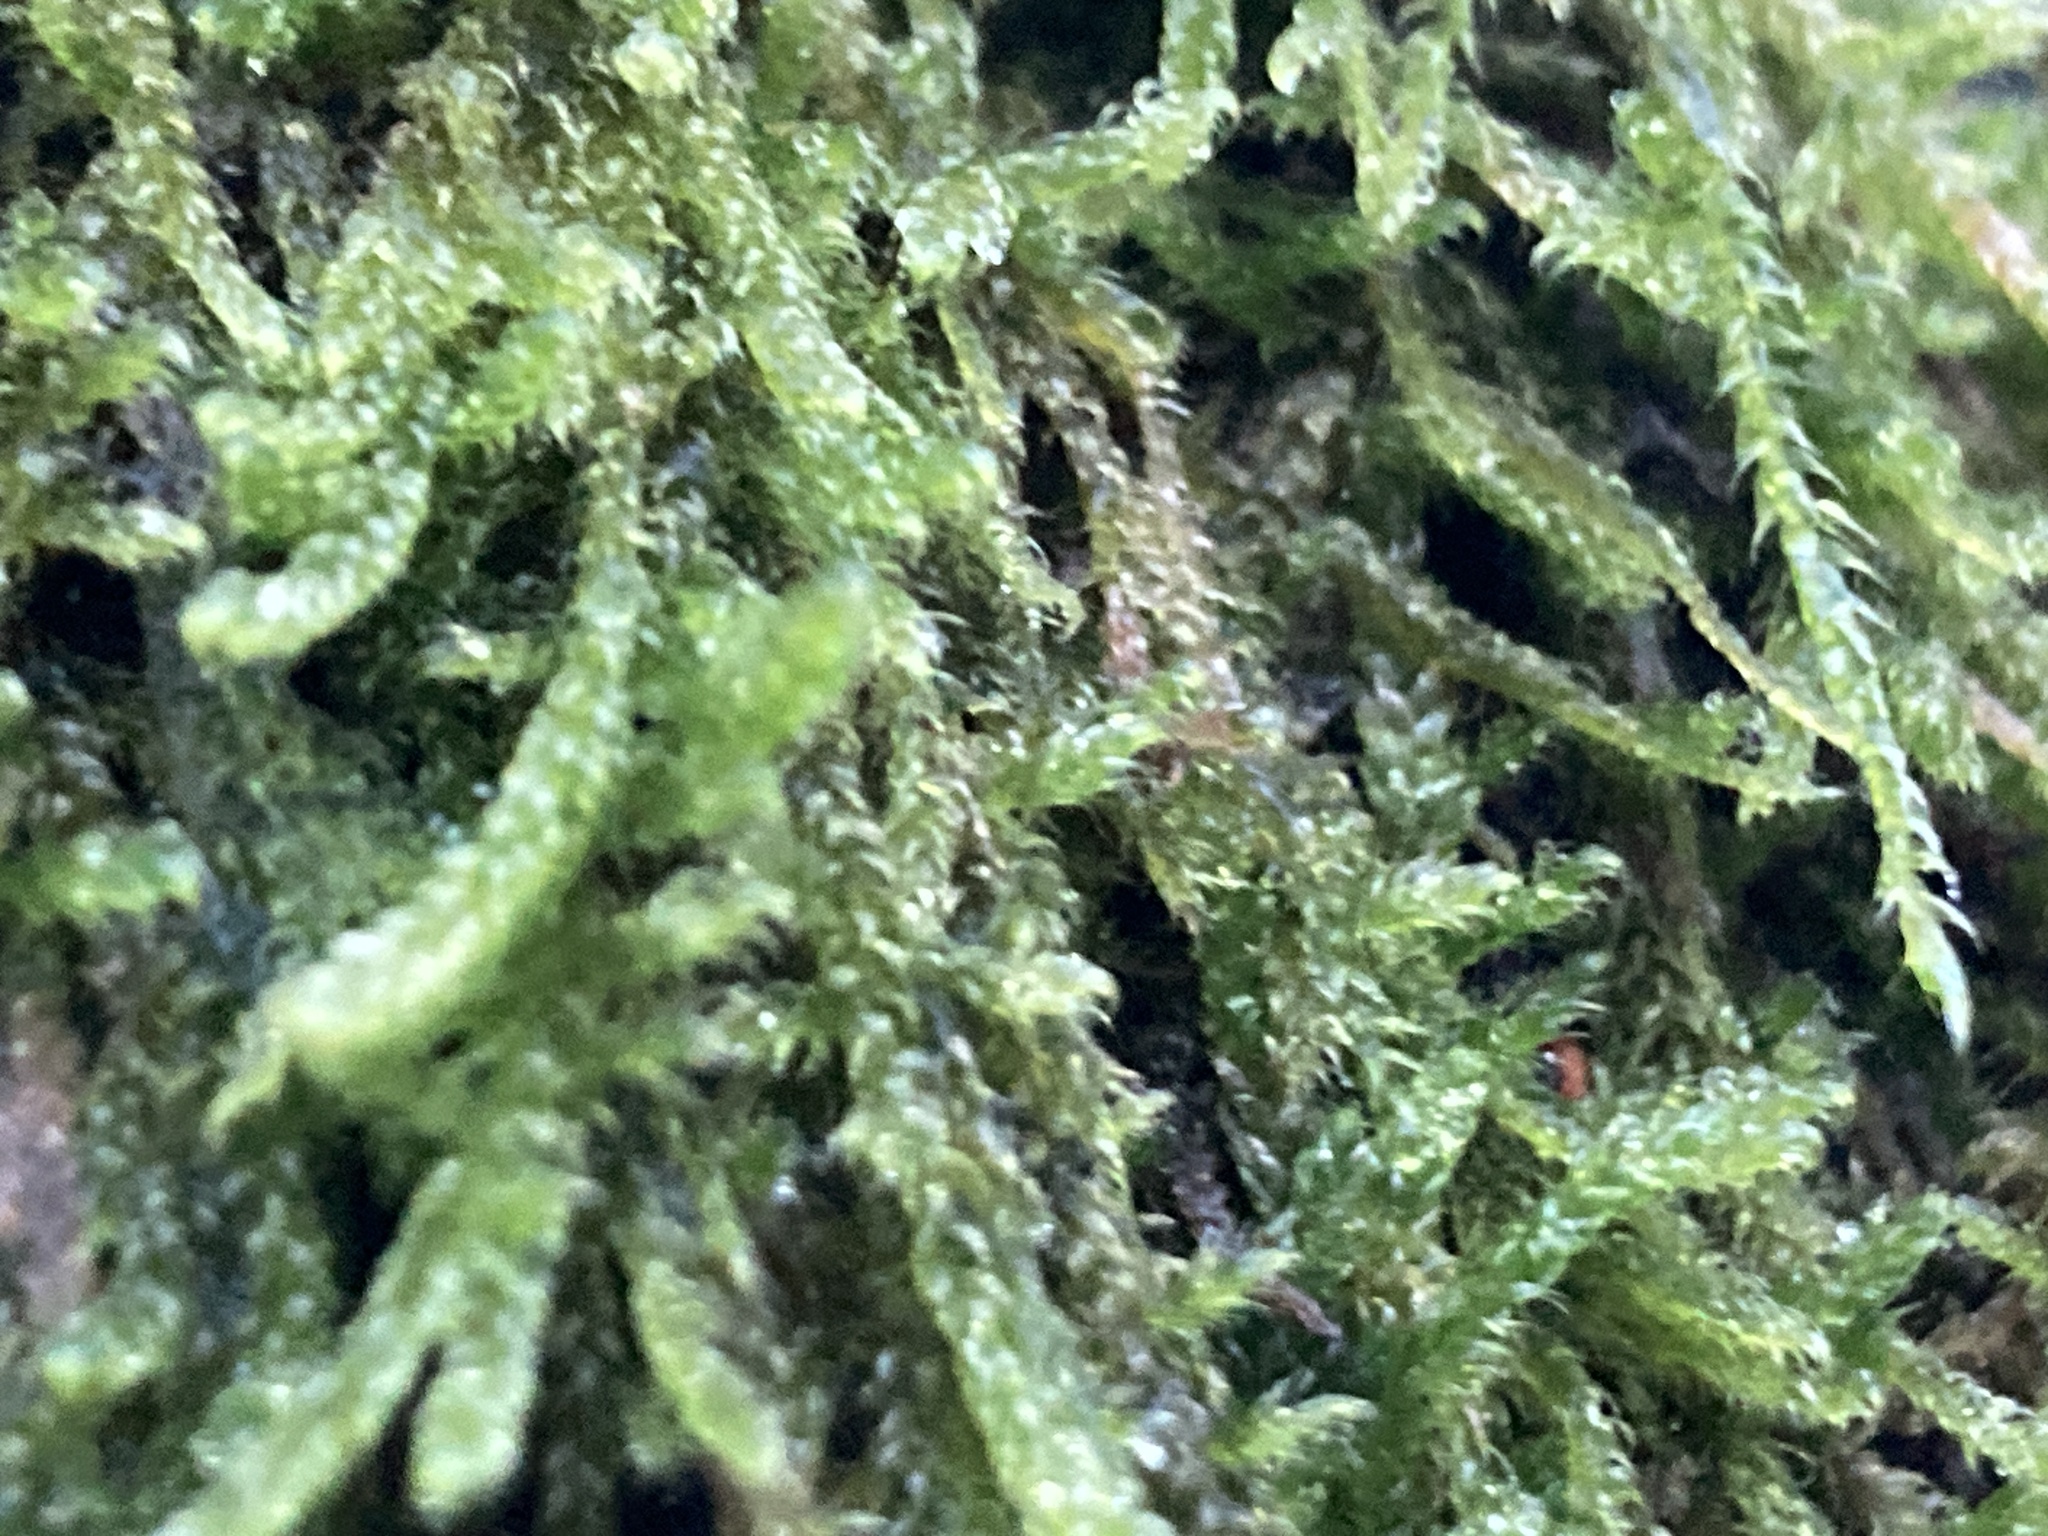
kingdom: Plantae
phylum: Bryophyta
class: Bryopsida
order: Hypnales
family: Hypnaceae
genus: Hypnum
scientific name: Hypnum cupressiforme
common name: Cypress-leaved plait-moss
